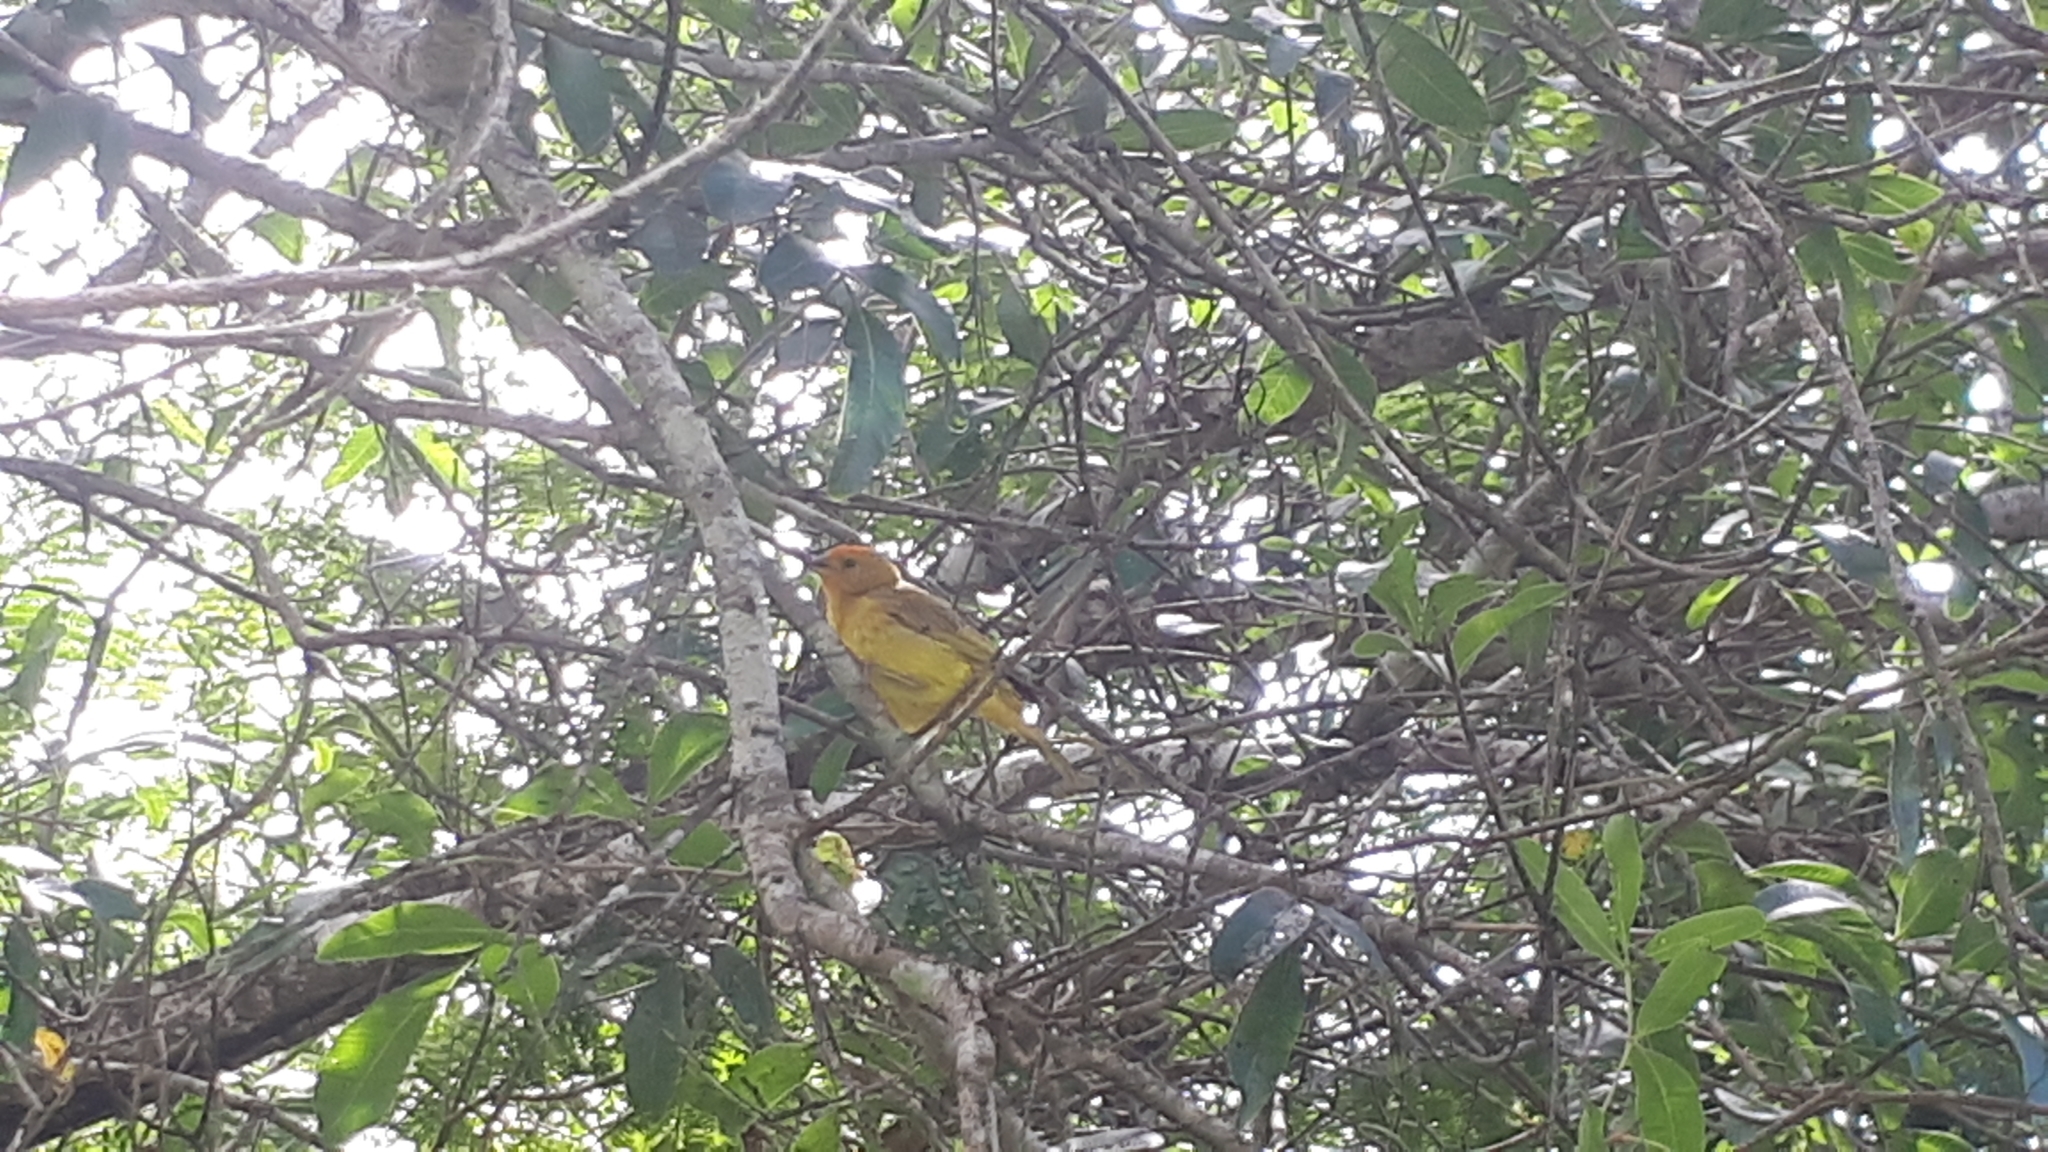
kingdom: Animalia
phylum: Chordata
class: Aves
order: Passeriformes
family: Thraupidae
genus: Sicalis
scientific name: Sicalis flaveola
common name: Saffron finch
